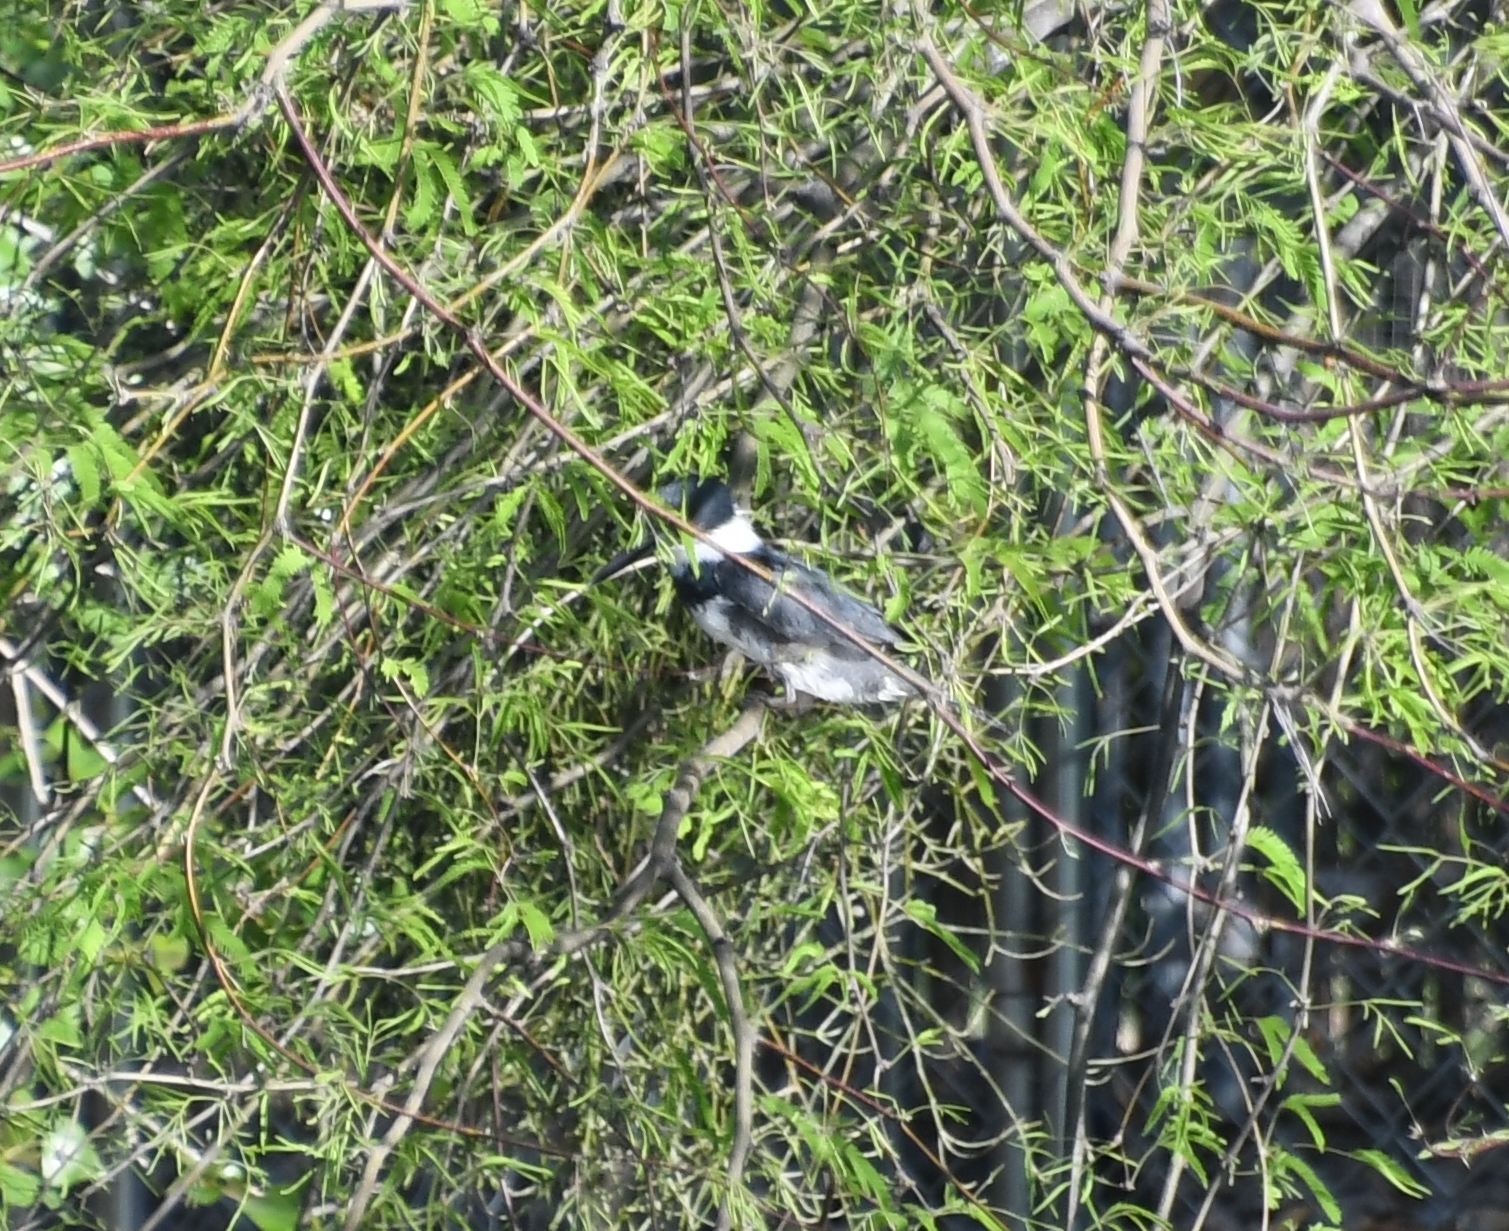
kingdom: Animalia
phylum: Chordata
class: Aves
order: Coraciiformes
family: Alcedinidae
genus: Megaceryle
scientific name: Megaceryle alcyon
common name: Belted kingfisher
